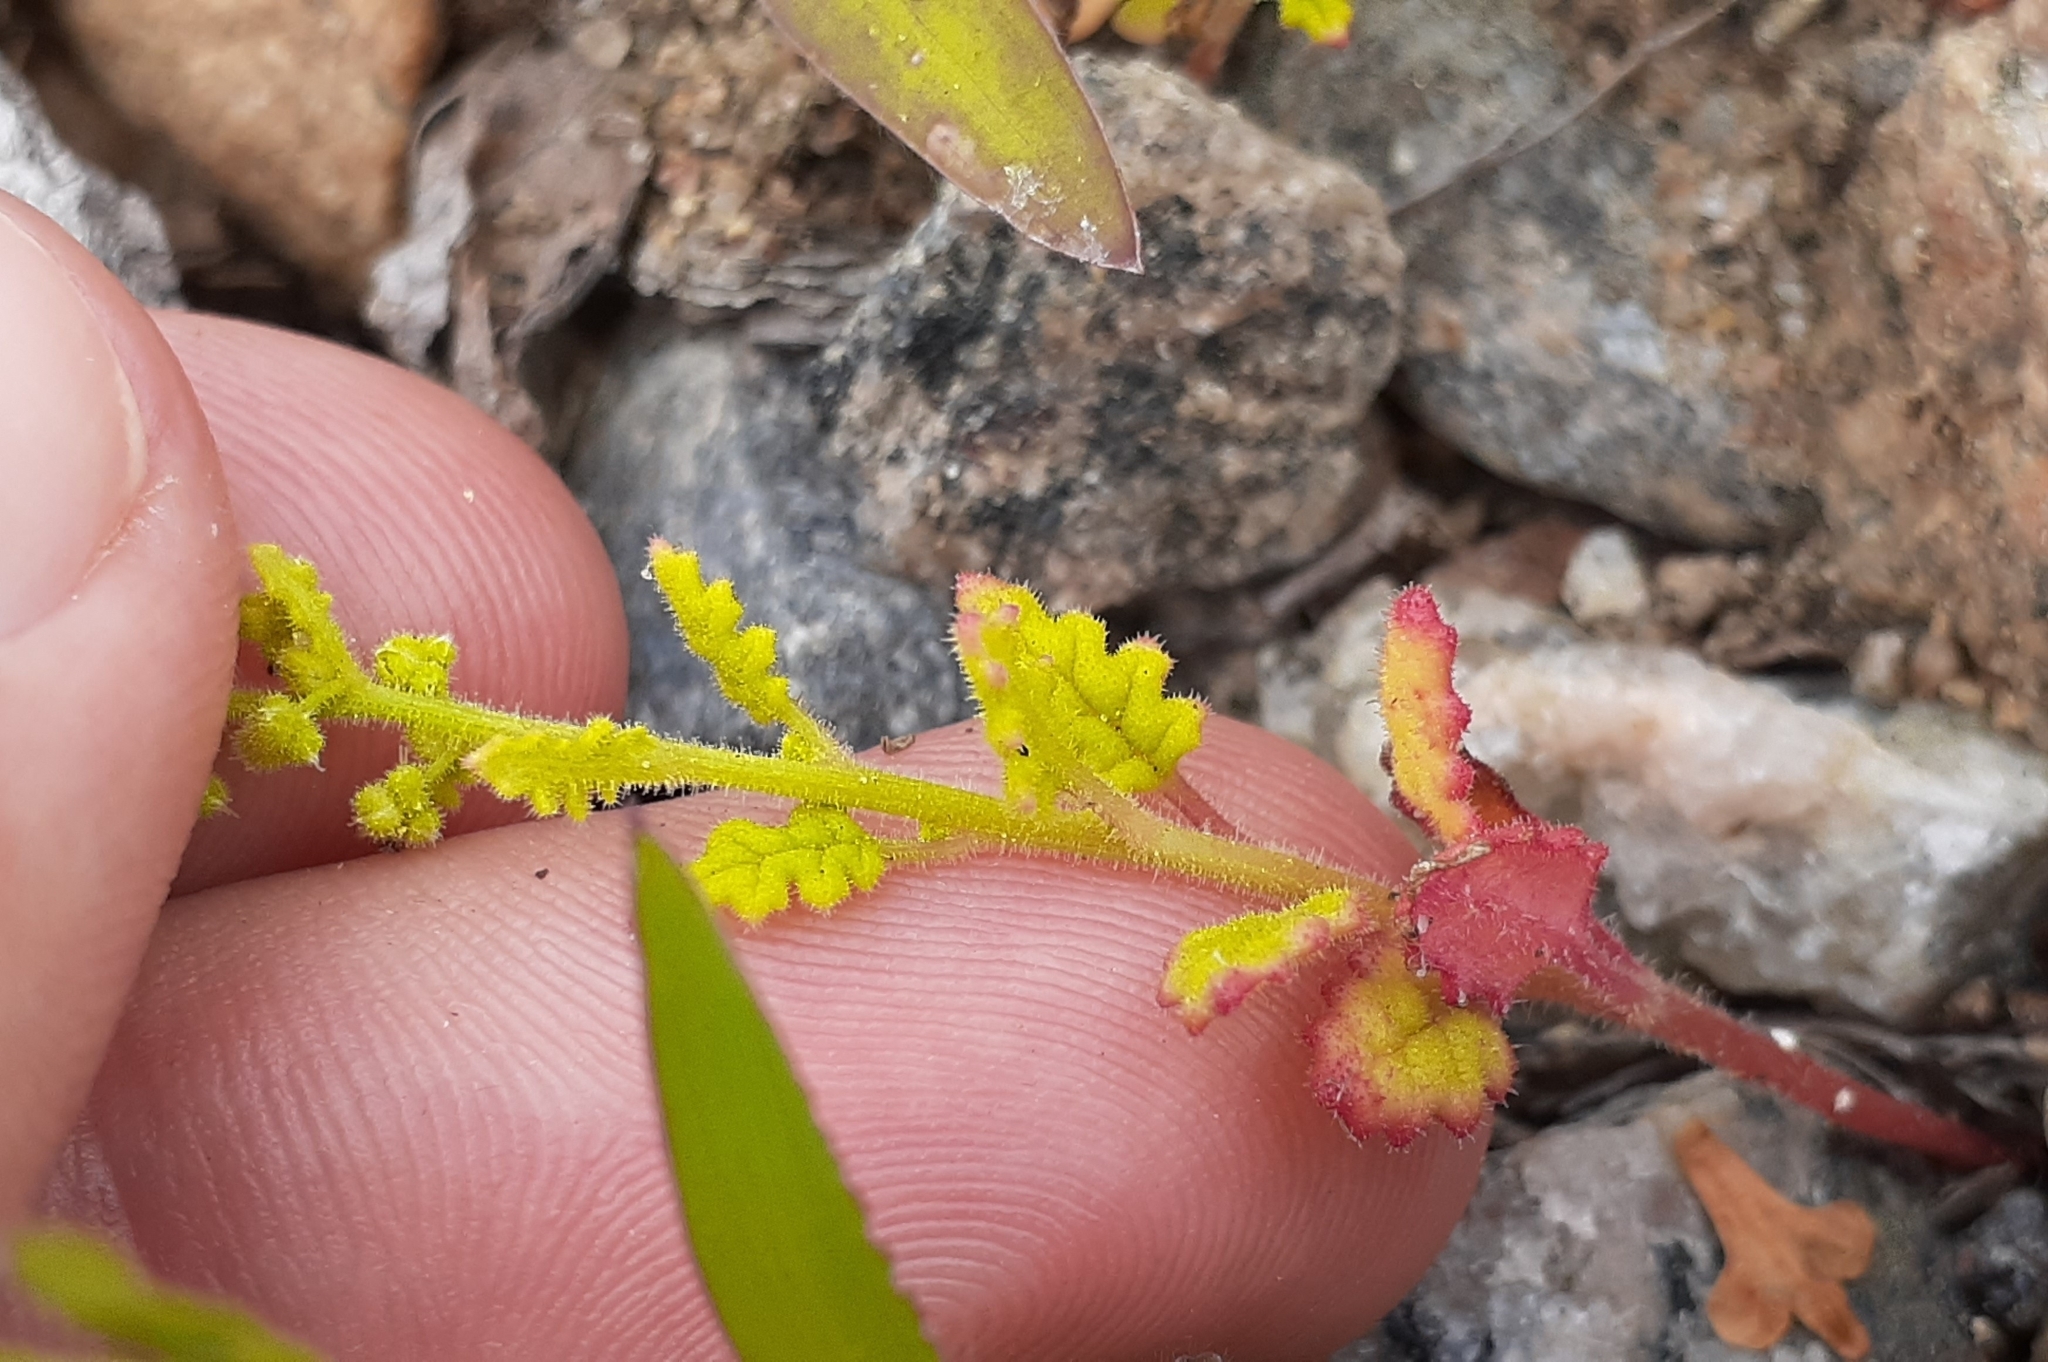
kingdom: Plantae
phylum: Tracheophyta
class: Magnoliopsida
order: Caryophyllales
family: Amaranthaceae
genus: Dysphania
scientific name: Dysphania botrys
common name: Feather-geranium
